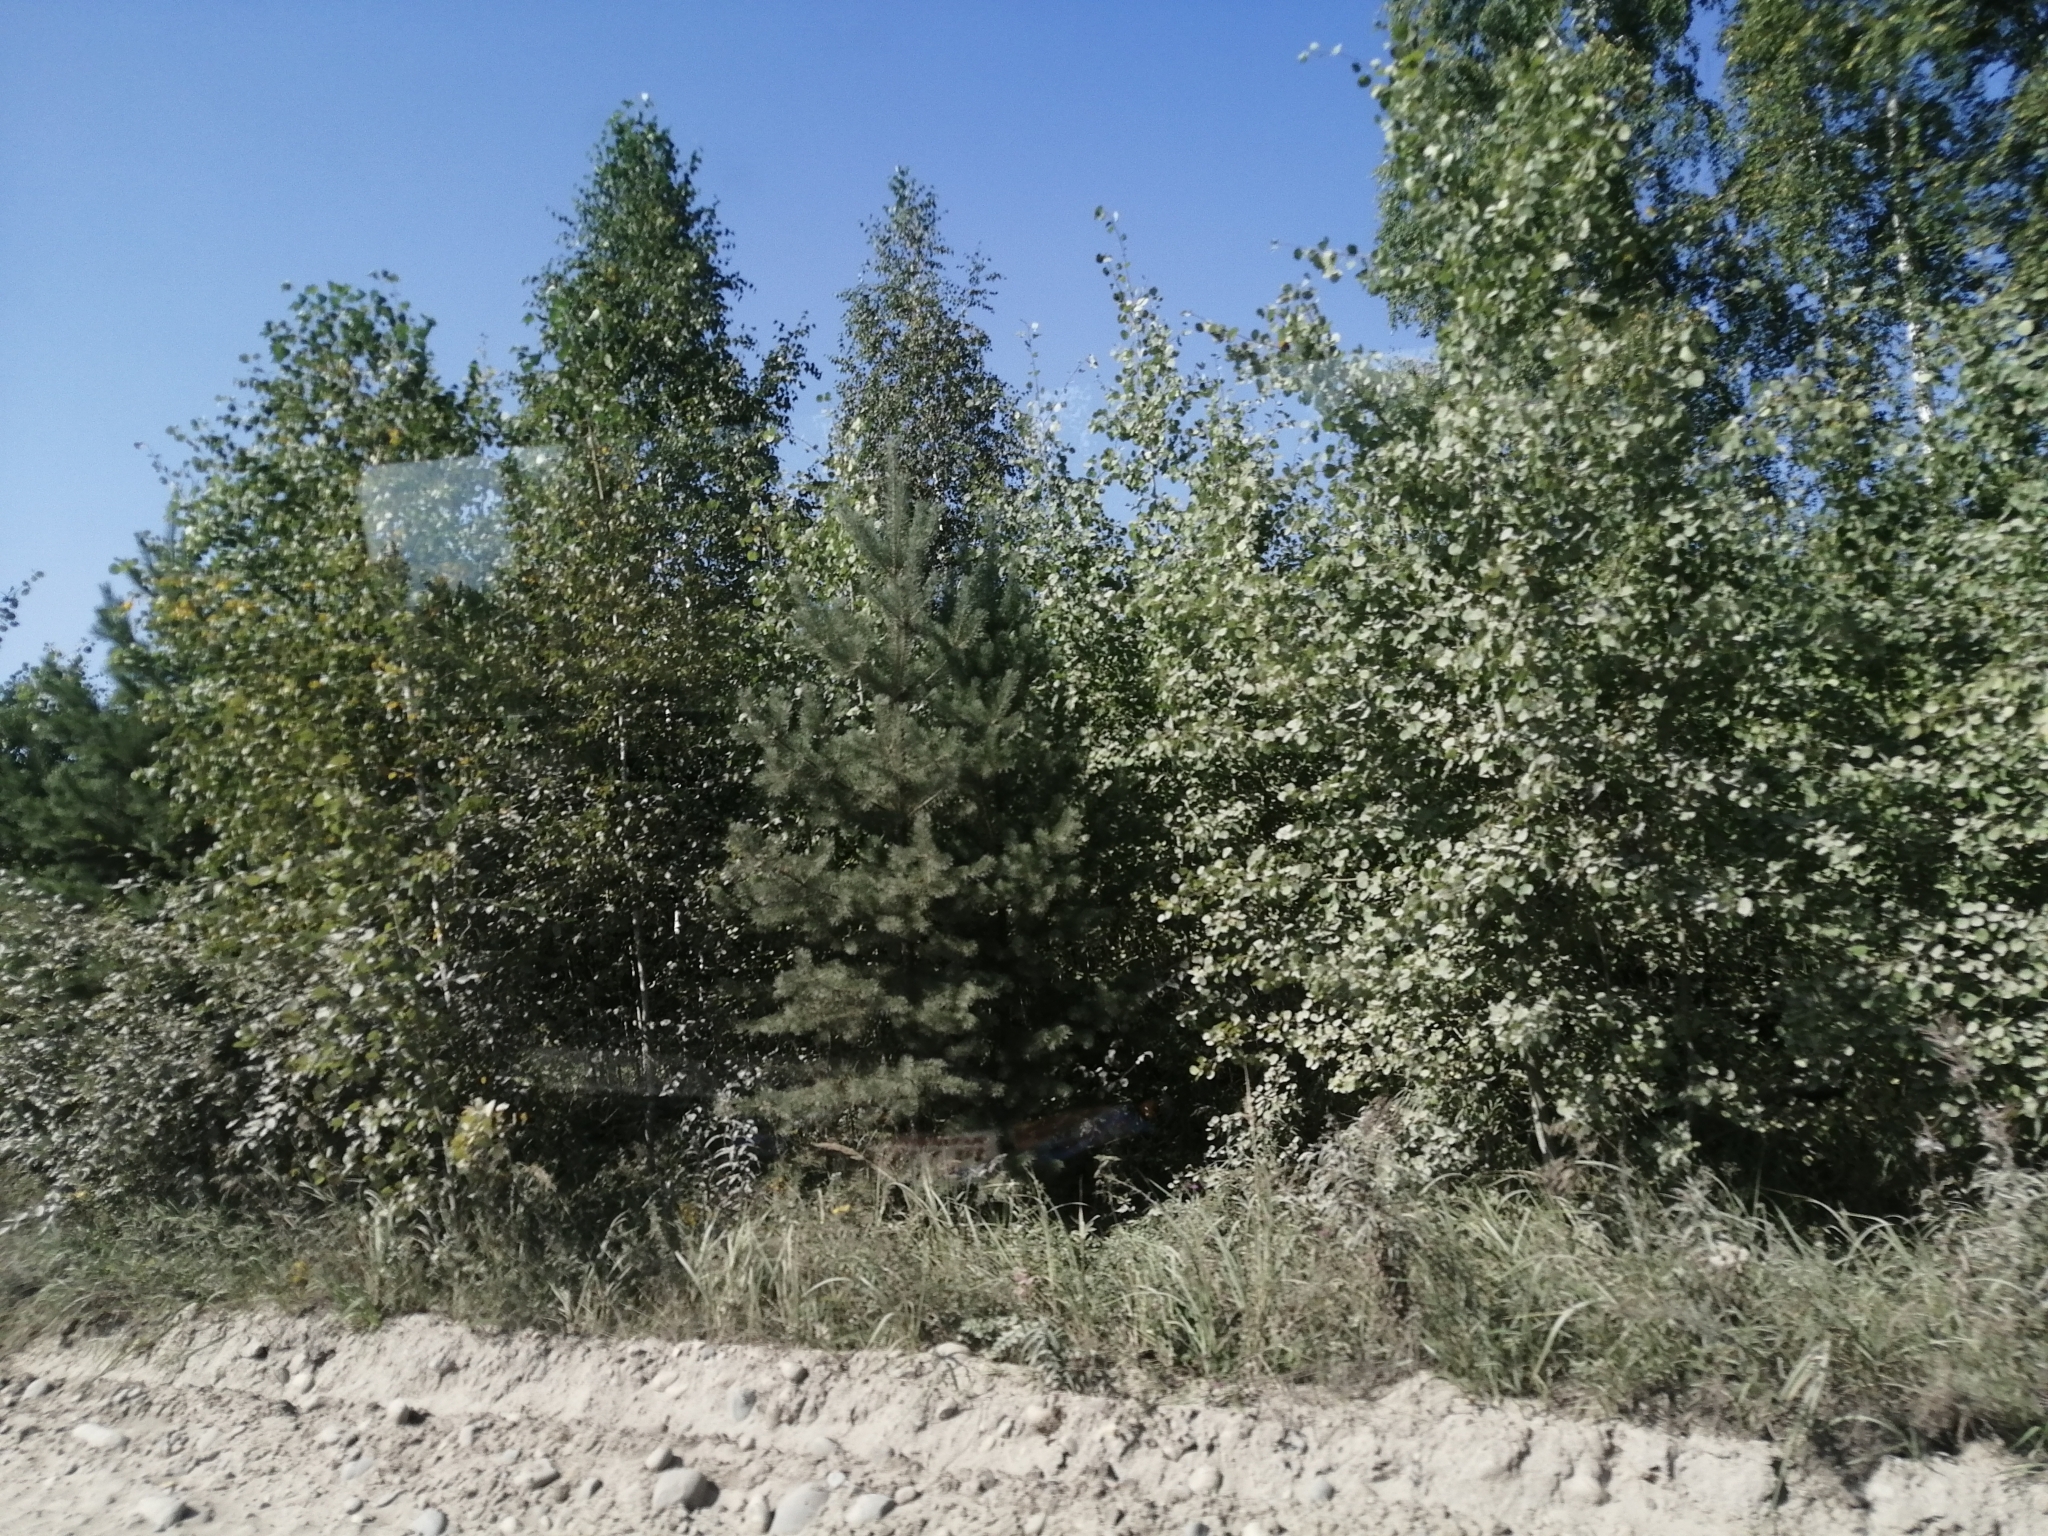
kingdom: Plantae
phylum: Tracheophyta
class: Pinopsida
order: Pinales
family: Pinaceae
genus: Pinus
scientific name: Pinus sylvestris
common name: Scots pine
